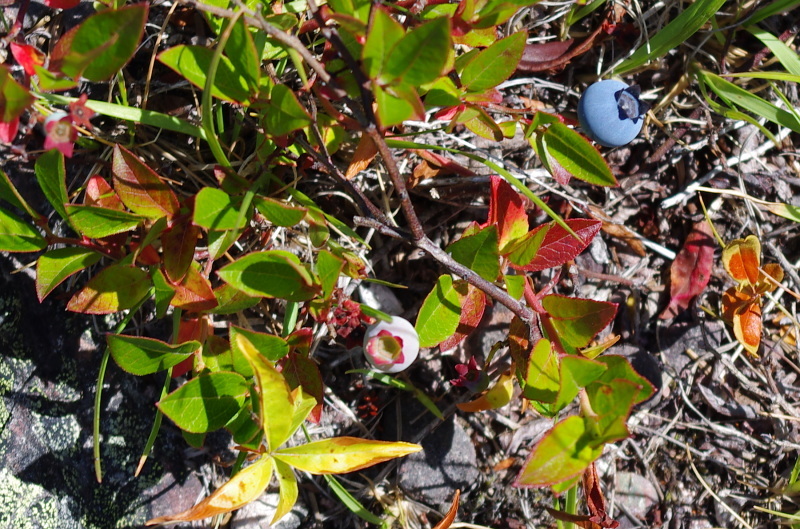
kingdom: Plantae
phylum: Tracheophyta
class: Magnoliopsida
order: Ericales
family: Ericaceae
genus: Vaccinium
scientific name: Vaccinium angustifolium
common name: Early lowbush blueberry
